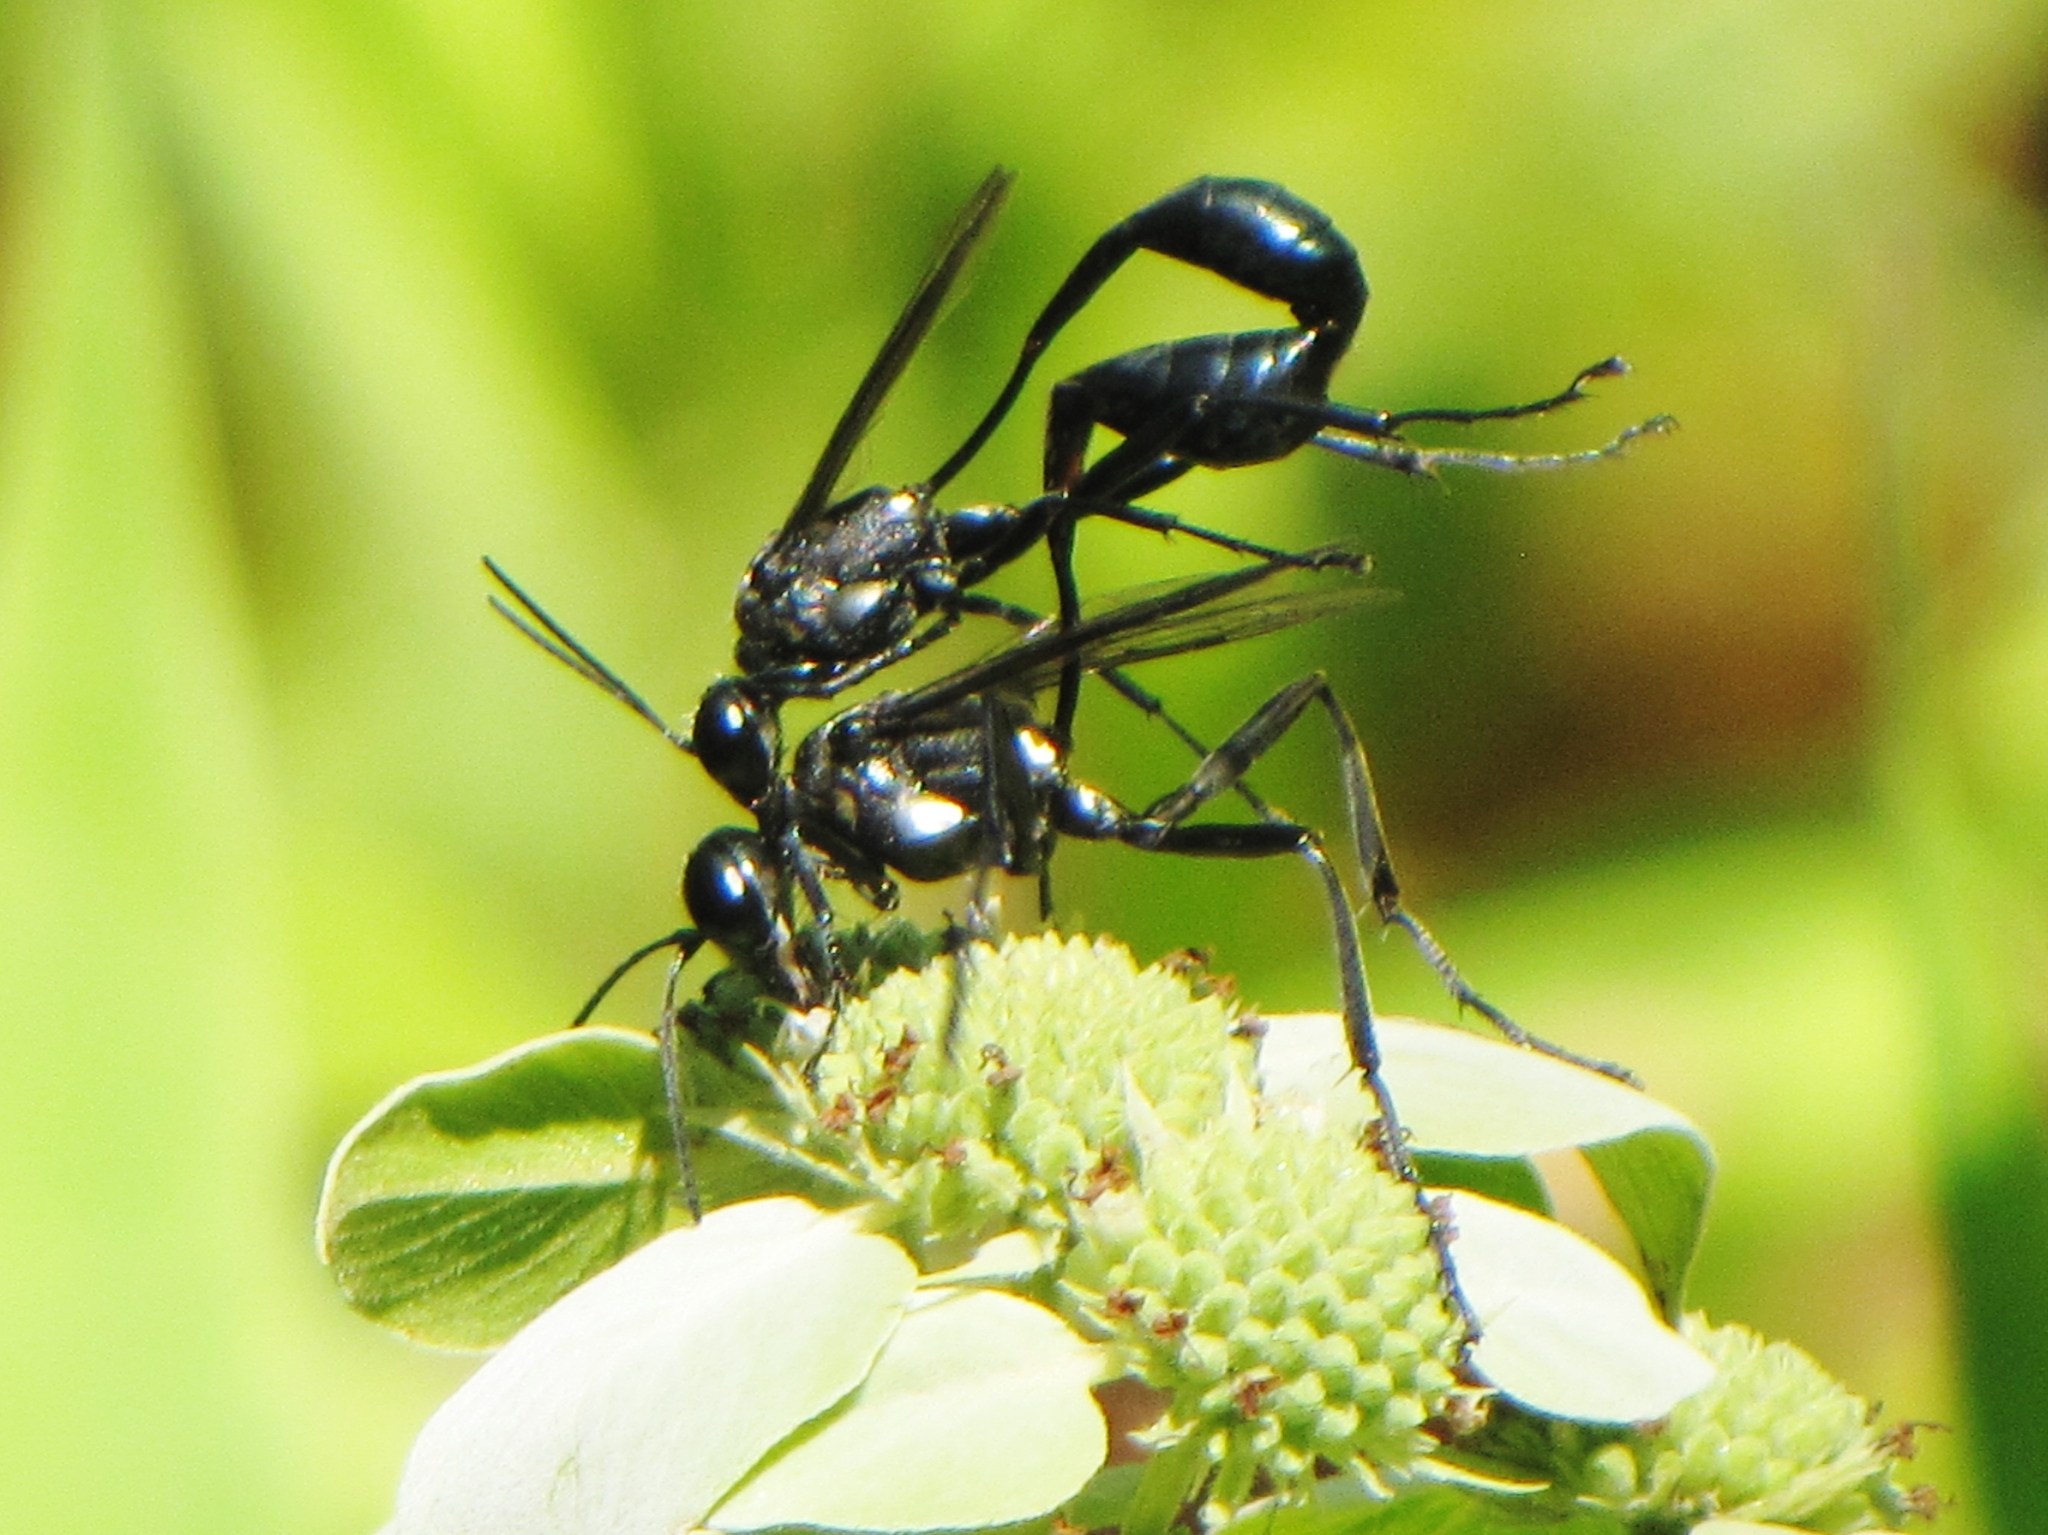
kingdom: Animalia
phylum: Arthropoda
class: Insecta
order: Hymenoptera
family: Sphecidae
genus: Eremnophila
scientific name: Eremnophila aureonotata
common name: Gold-marked thread-waisted wasp
